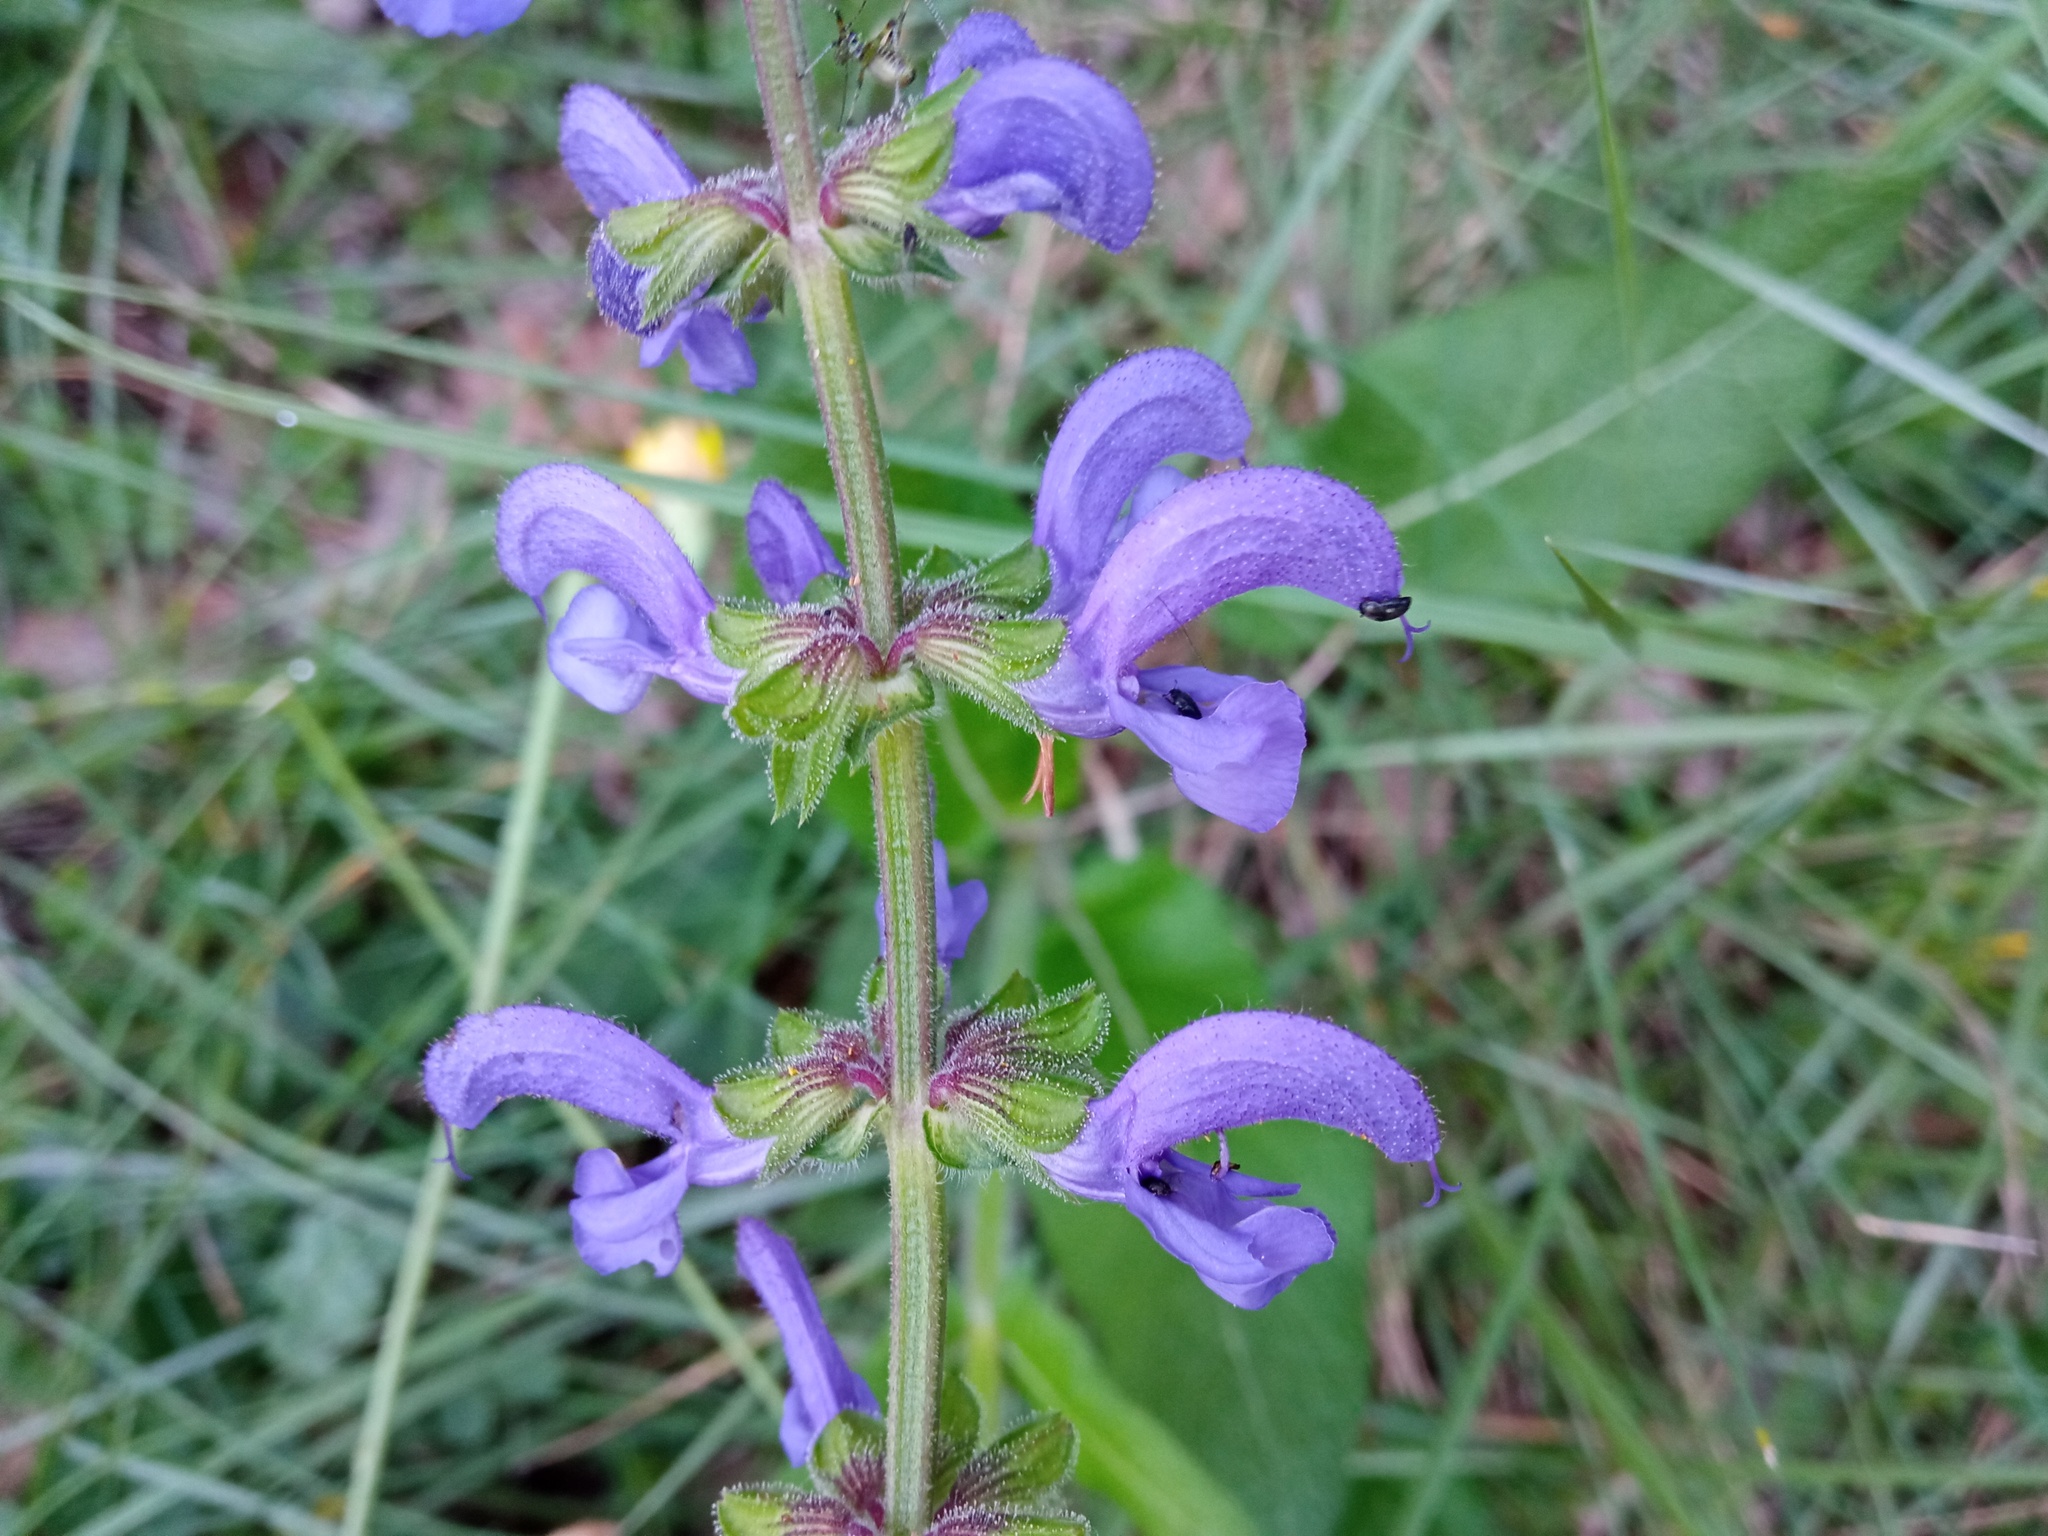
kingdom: Plantae
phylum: Tracheophyta
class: Magnoliopsida
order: Lamiales
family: Lamiaceae
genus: Salvia
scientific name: Salvia pratensis
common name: Meadow sage
